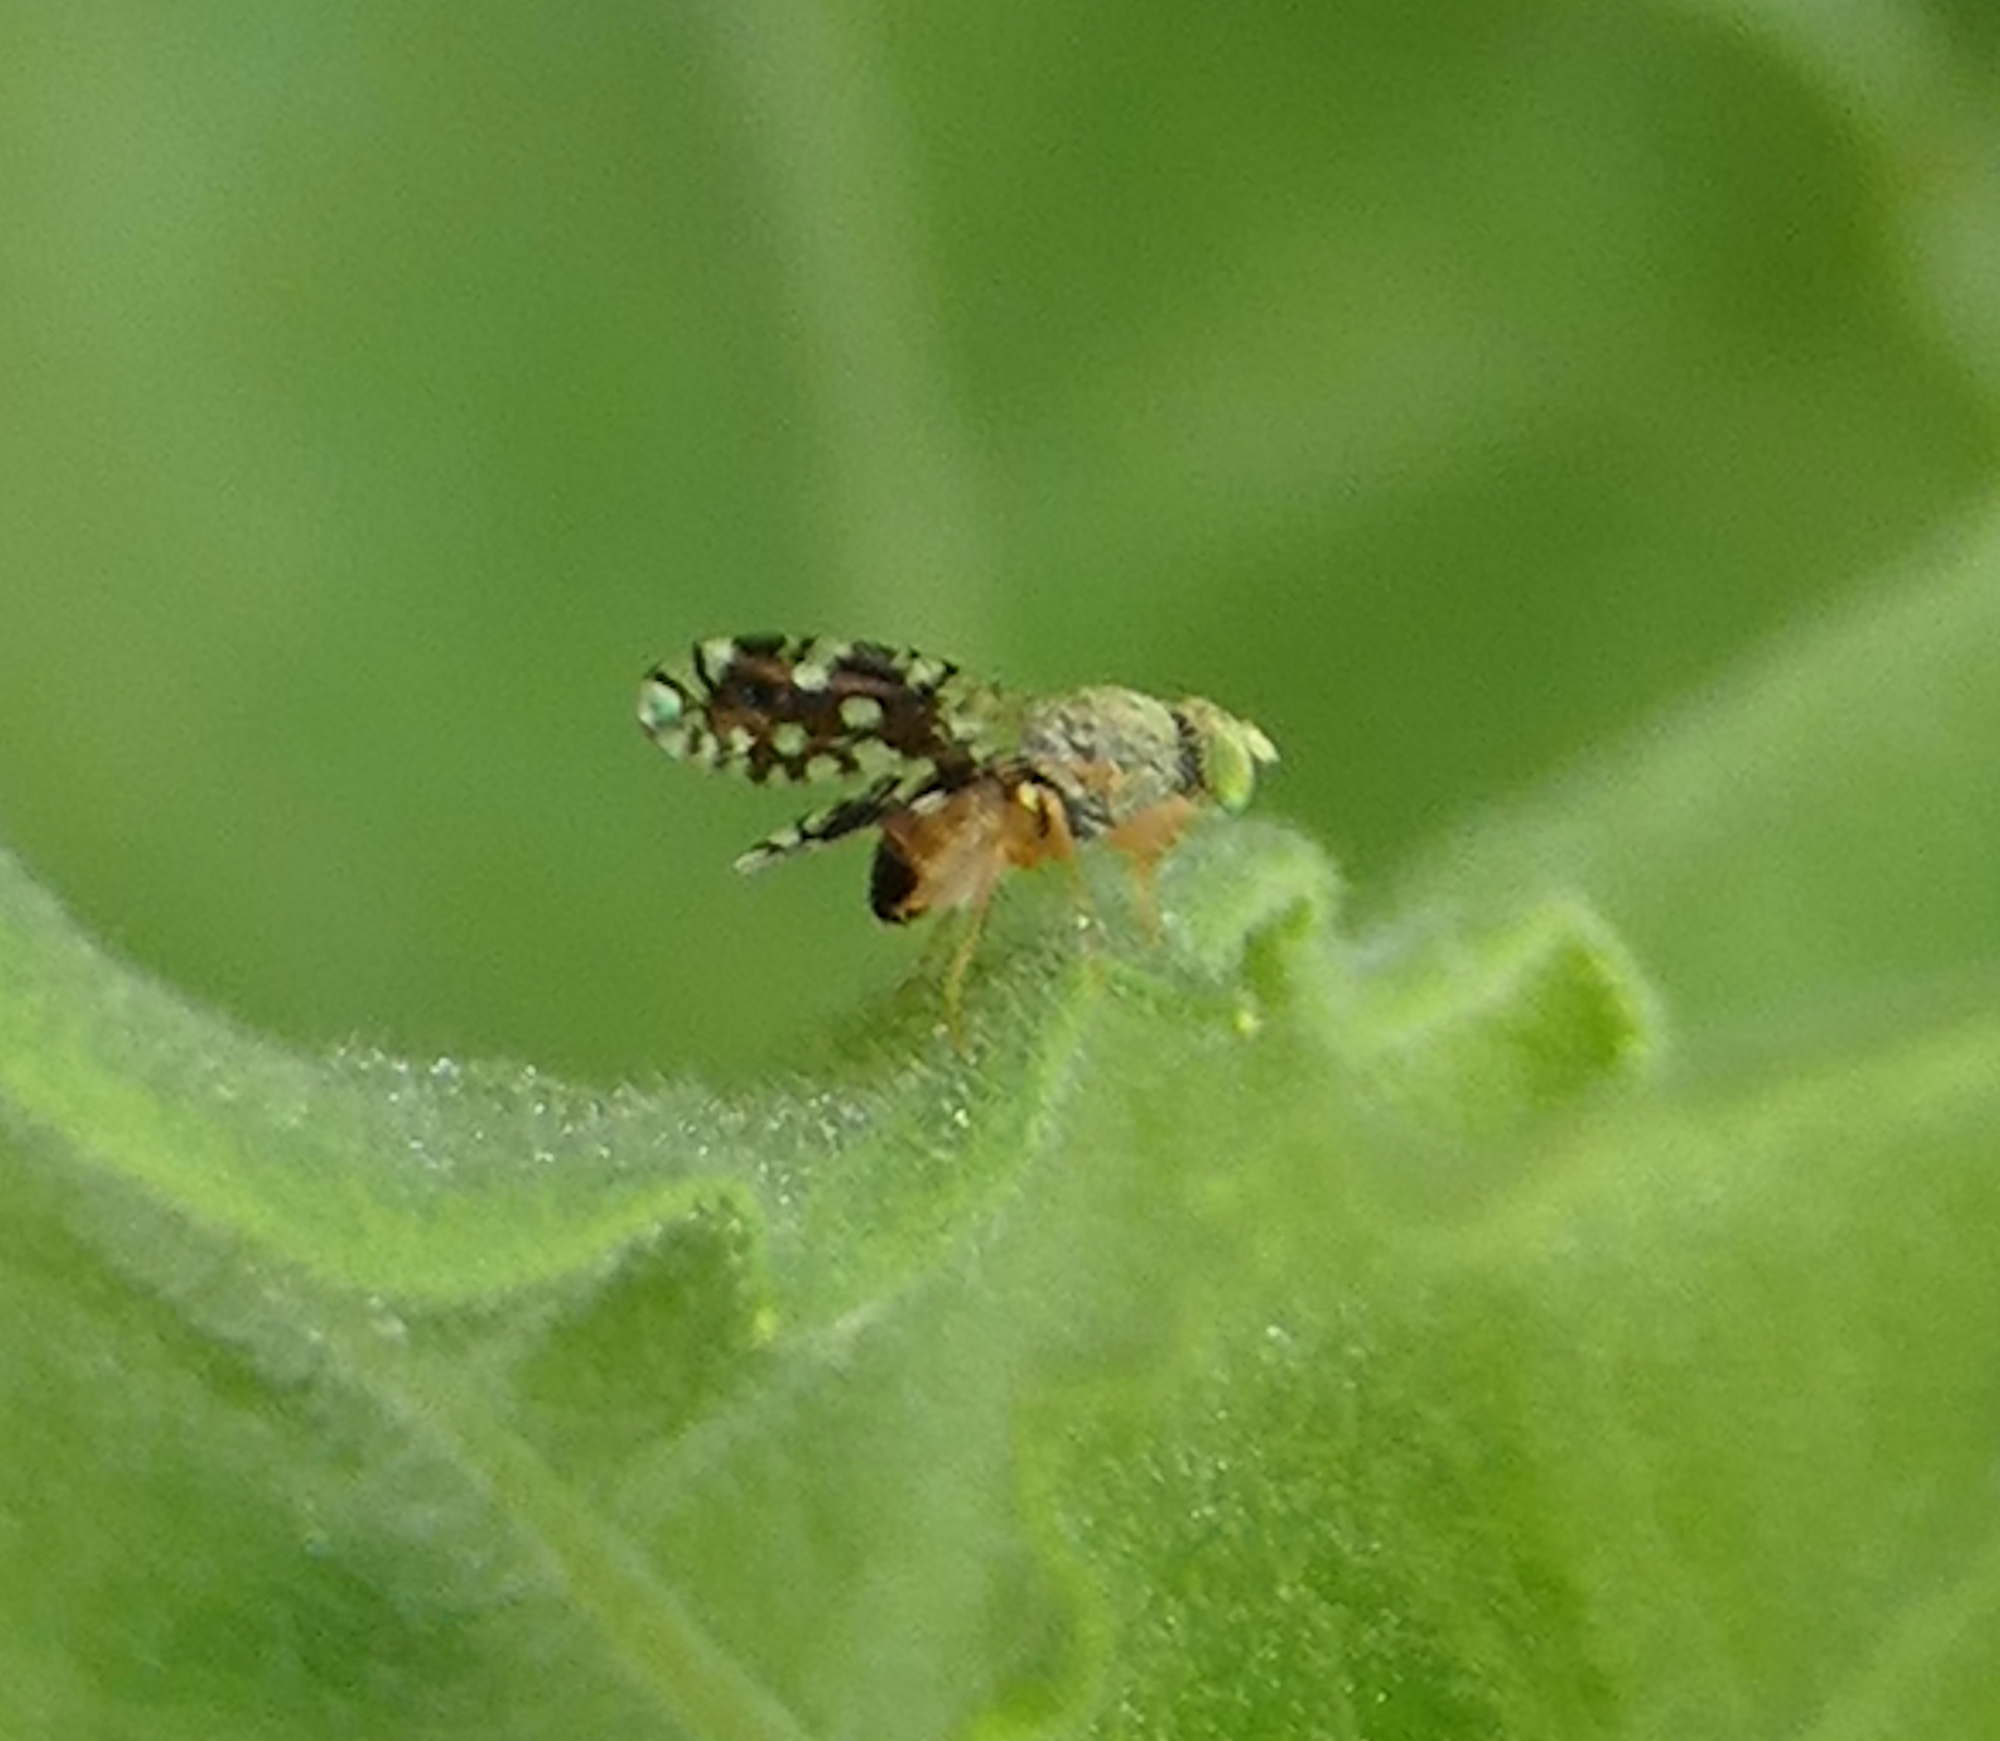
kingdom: Animalia
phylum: Arthropoda
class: Insecta
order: Diptera
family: Tephritidae
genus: Euaresta
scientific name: Euaresta bellula
